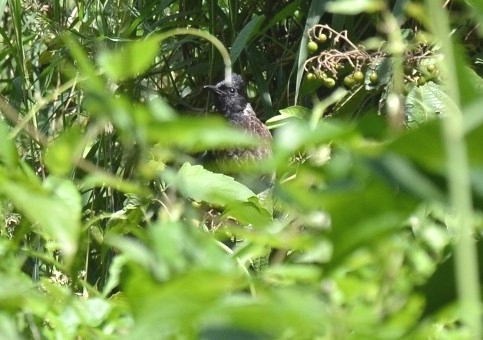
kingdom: Animalia
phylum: Chordata
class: Aves
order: Passeriformes
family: Pycnonotidae
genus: Pycnonotus
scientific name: Pycnonotus cafer
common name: Red-vented bulbul
